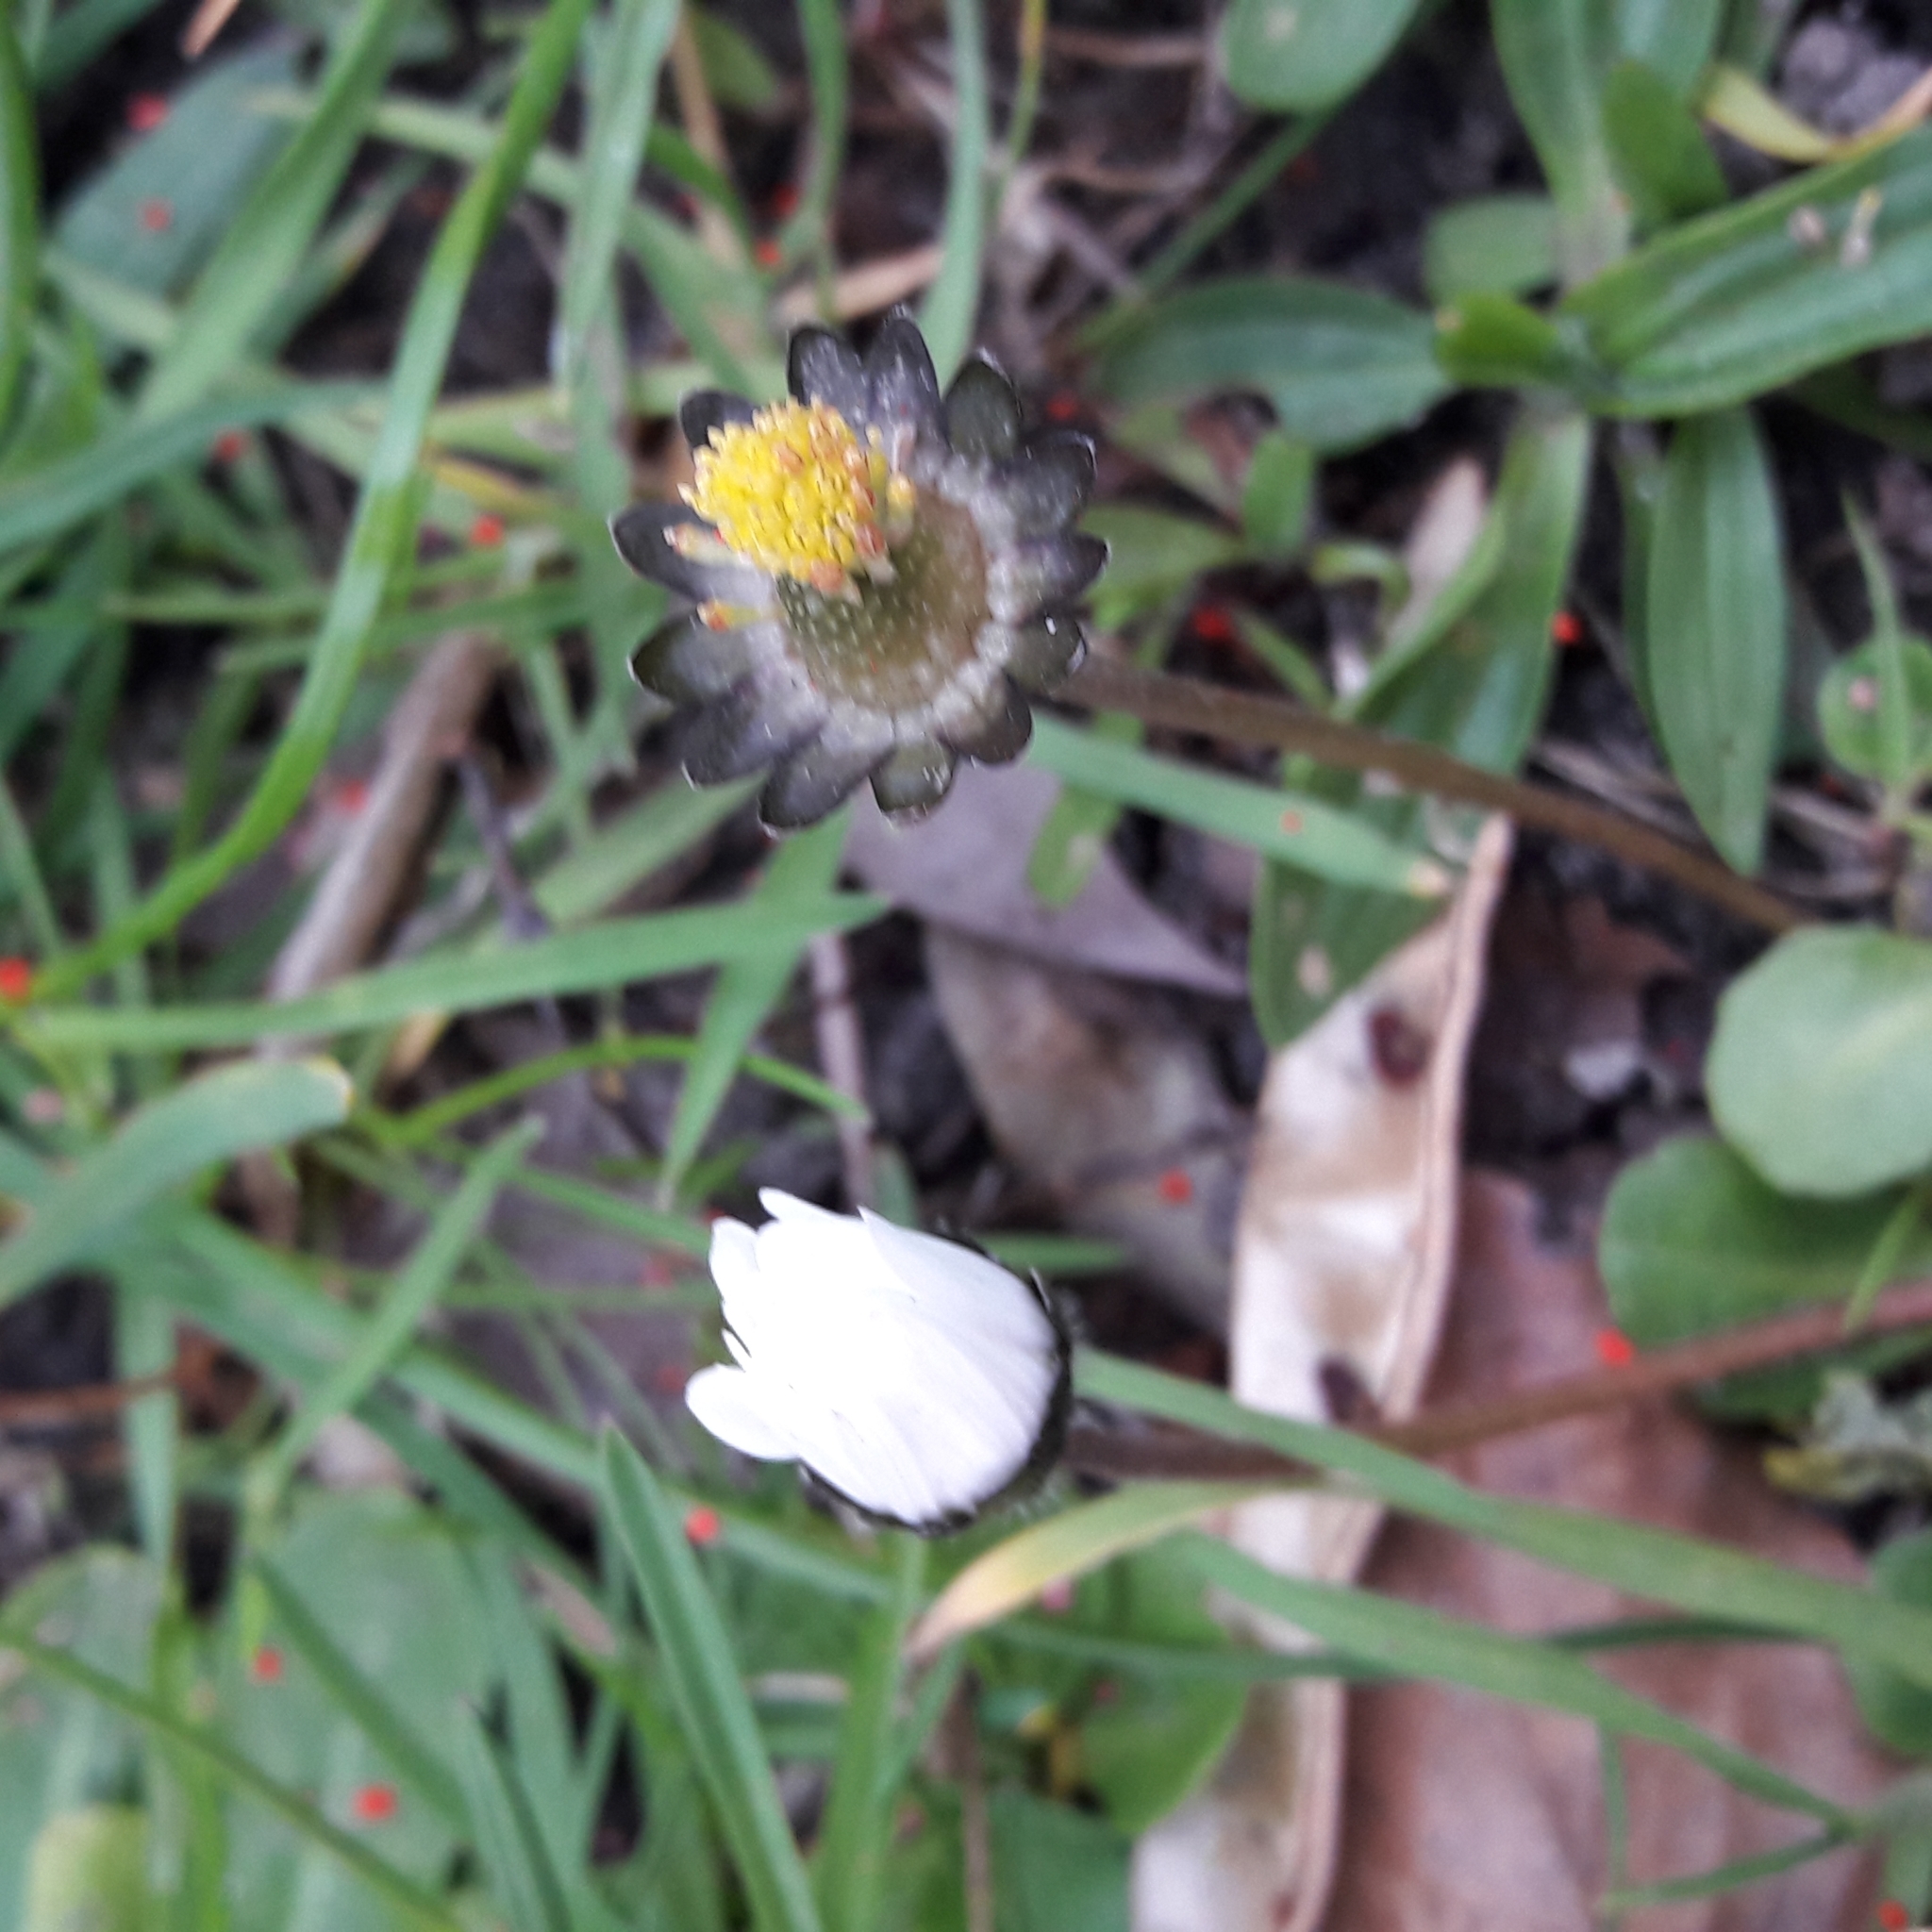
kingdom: Plantae
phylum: Tracheophyta
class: Magnoliopsida
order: Asterales
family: Asteraceae
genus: Bellis
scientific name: Bellis perennis
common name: Lawndaisy
